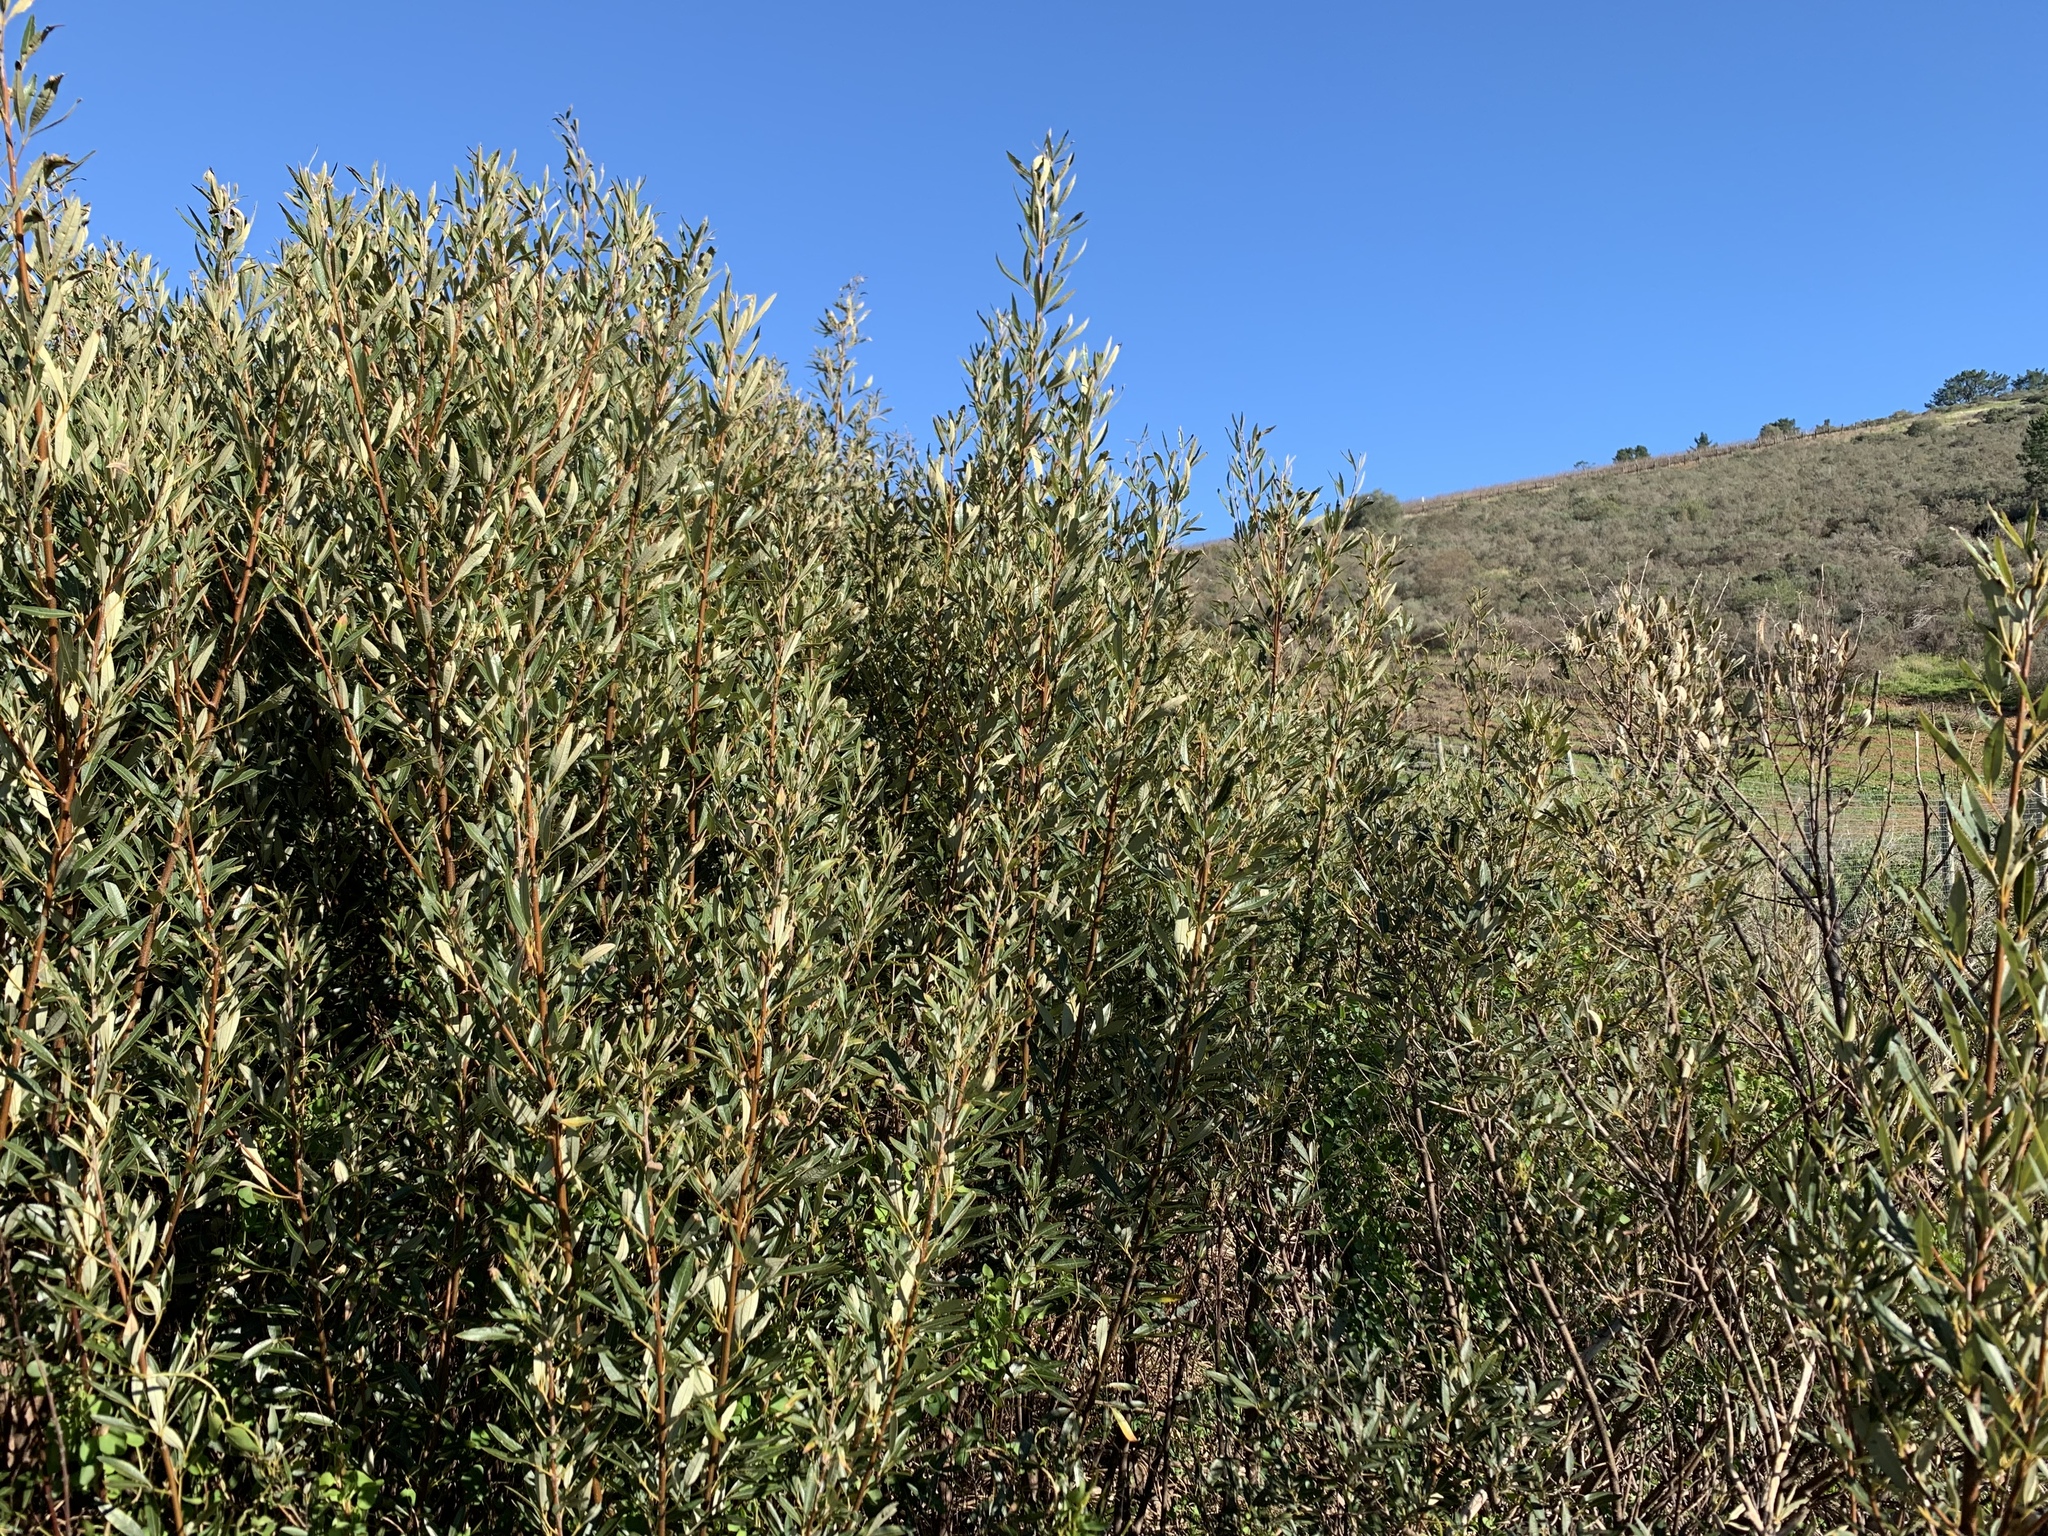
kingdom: Plantae
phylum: Tracheophyta
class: Magnoliopsida
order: Sapindales
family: Anacardiaceae
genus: Searsia
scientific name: Searsia angustifolia
